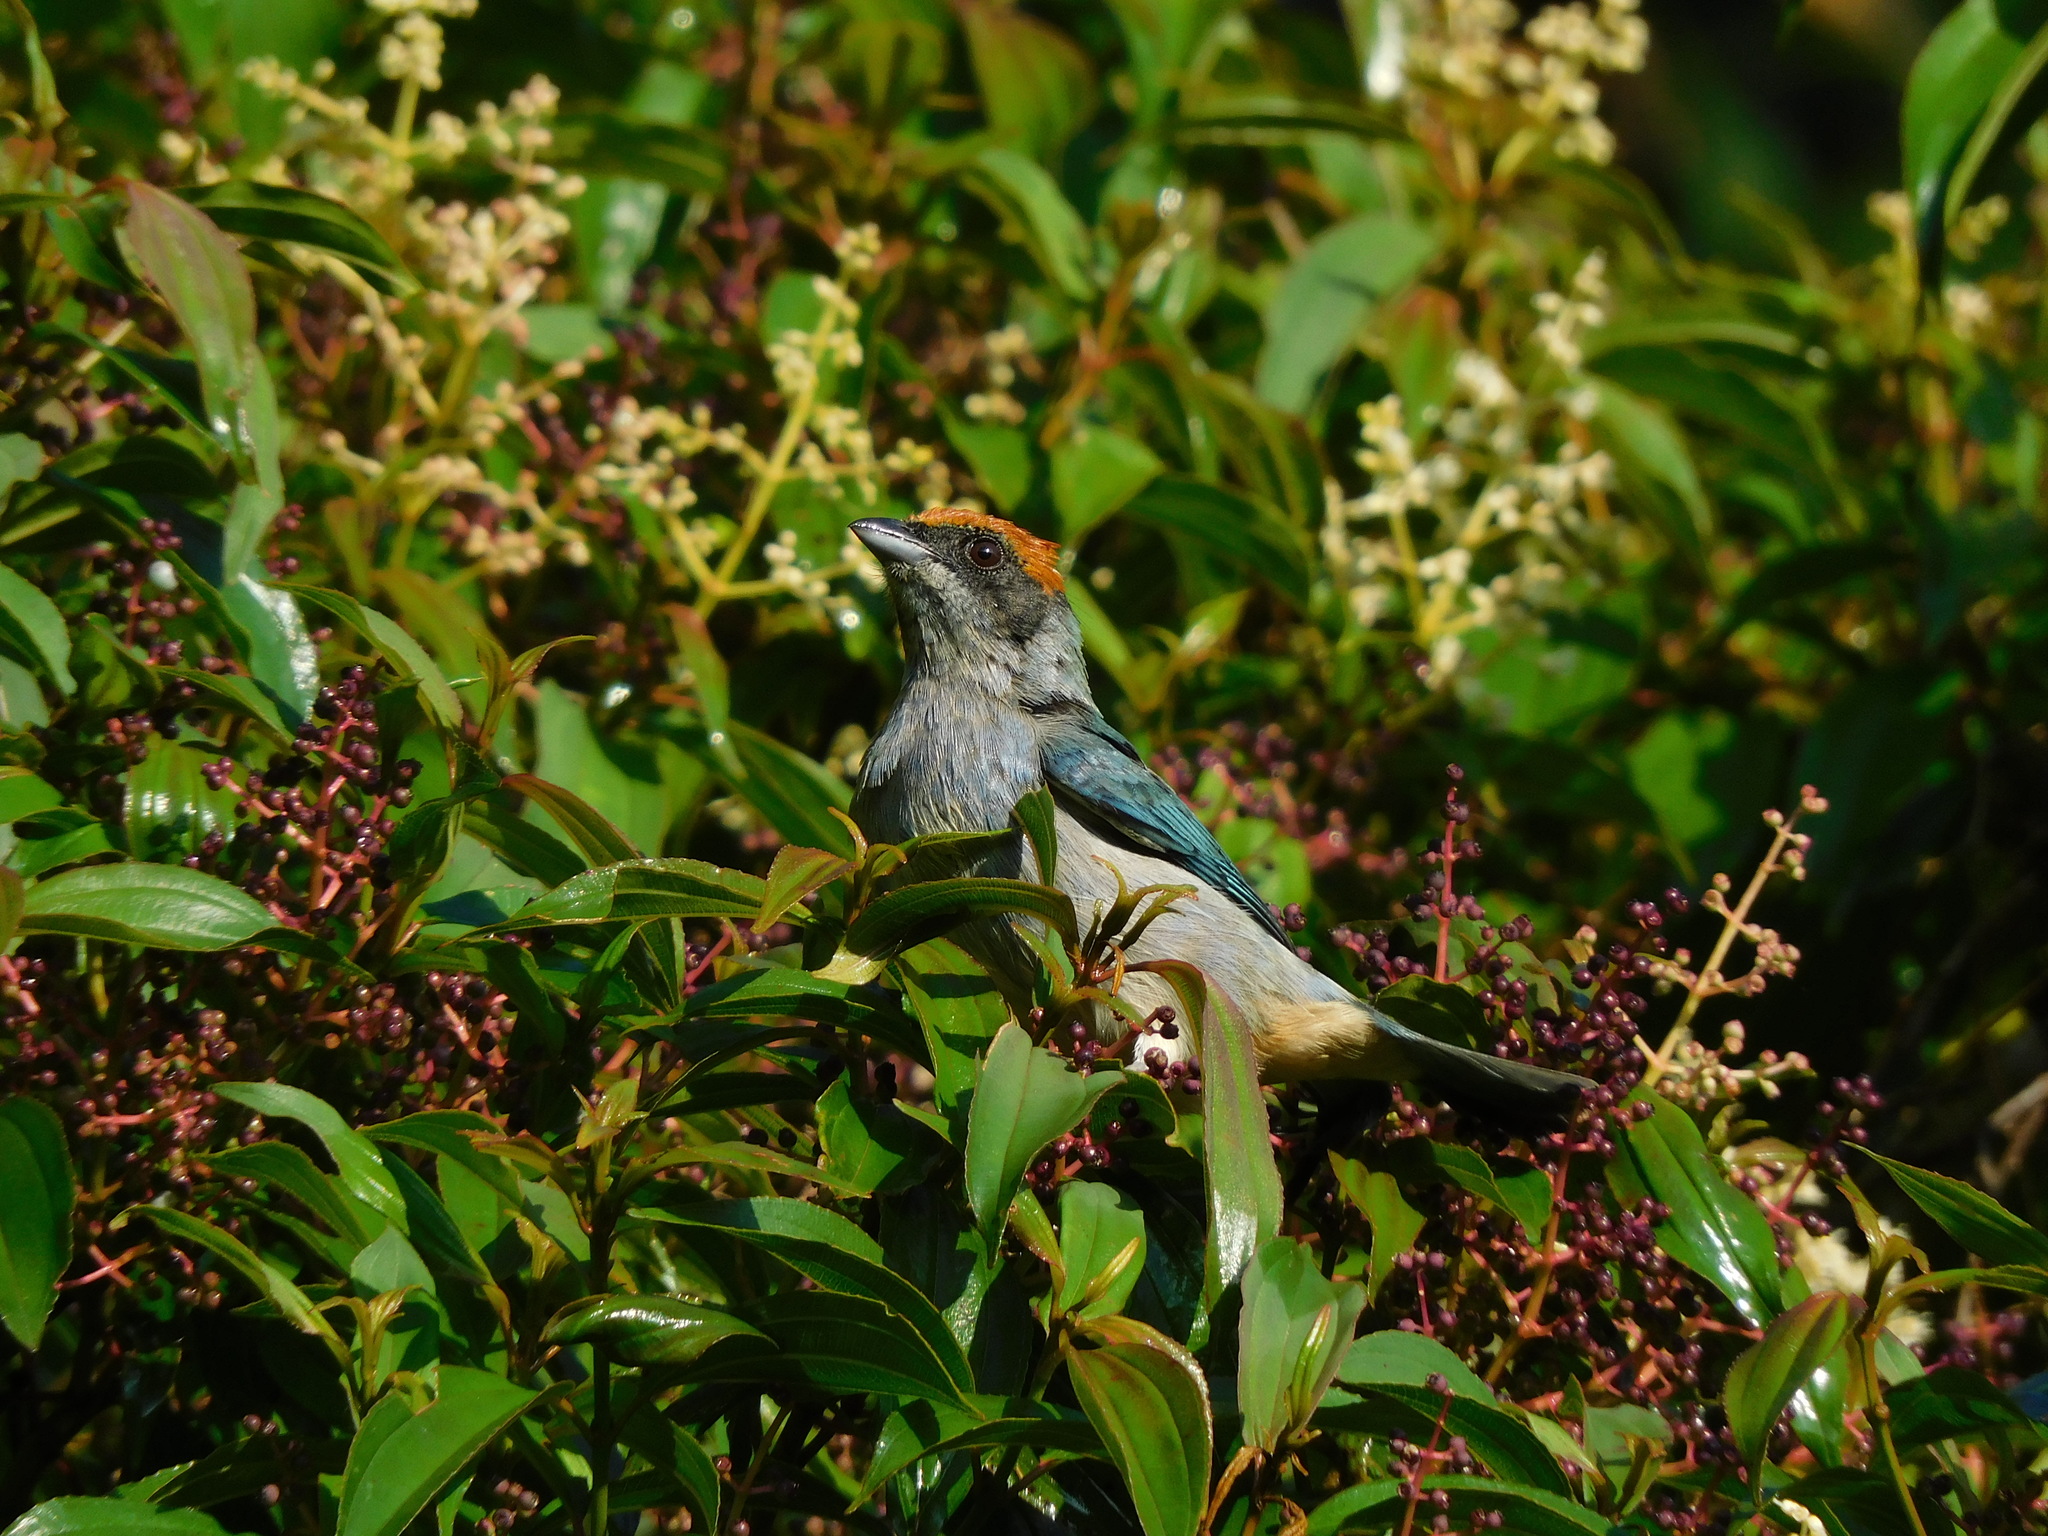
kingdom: Animalia
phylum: Chordata
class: Aves
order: Passeriformes
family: Thraupidae
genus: Stilpnia
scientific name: Stilpnia vitriolina
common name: Scrub tanager
